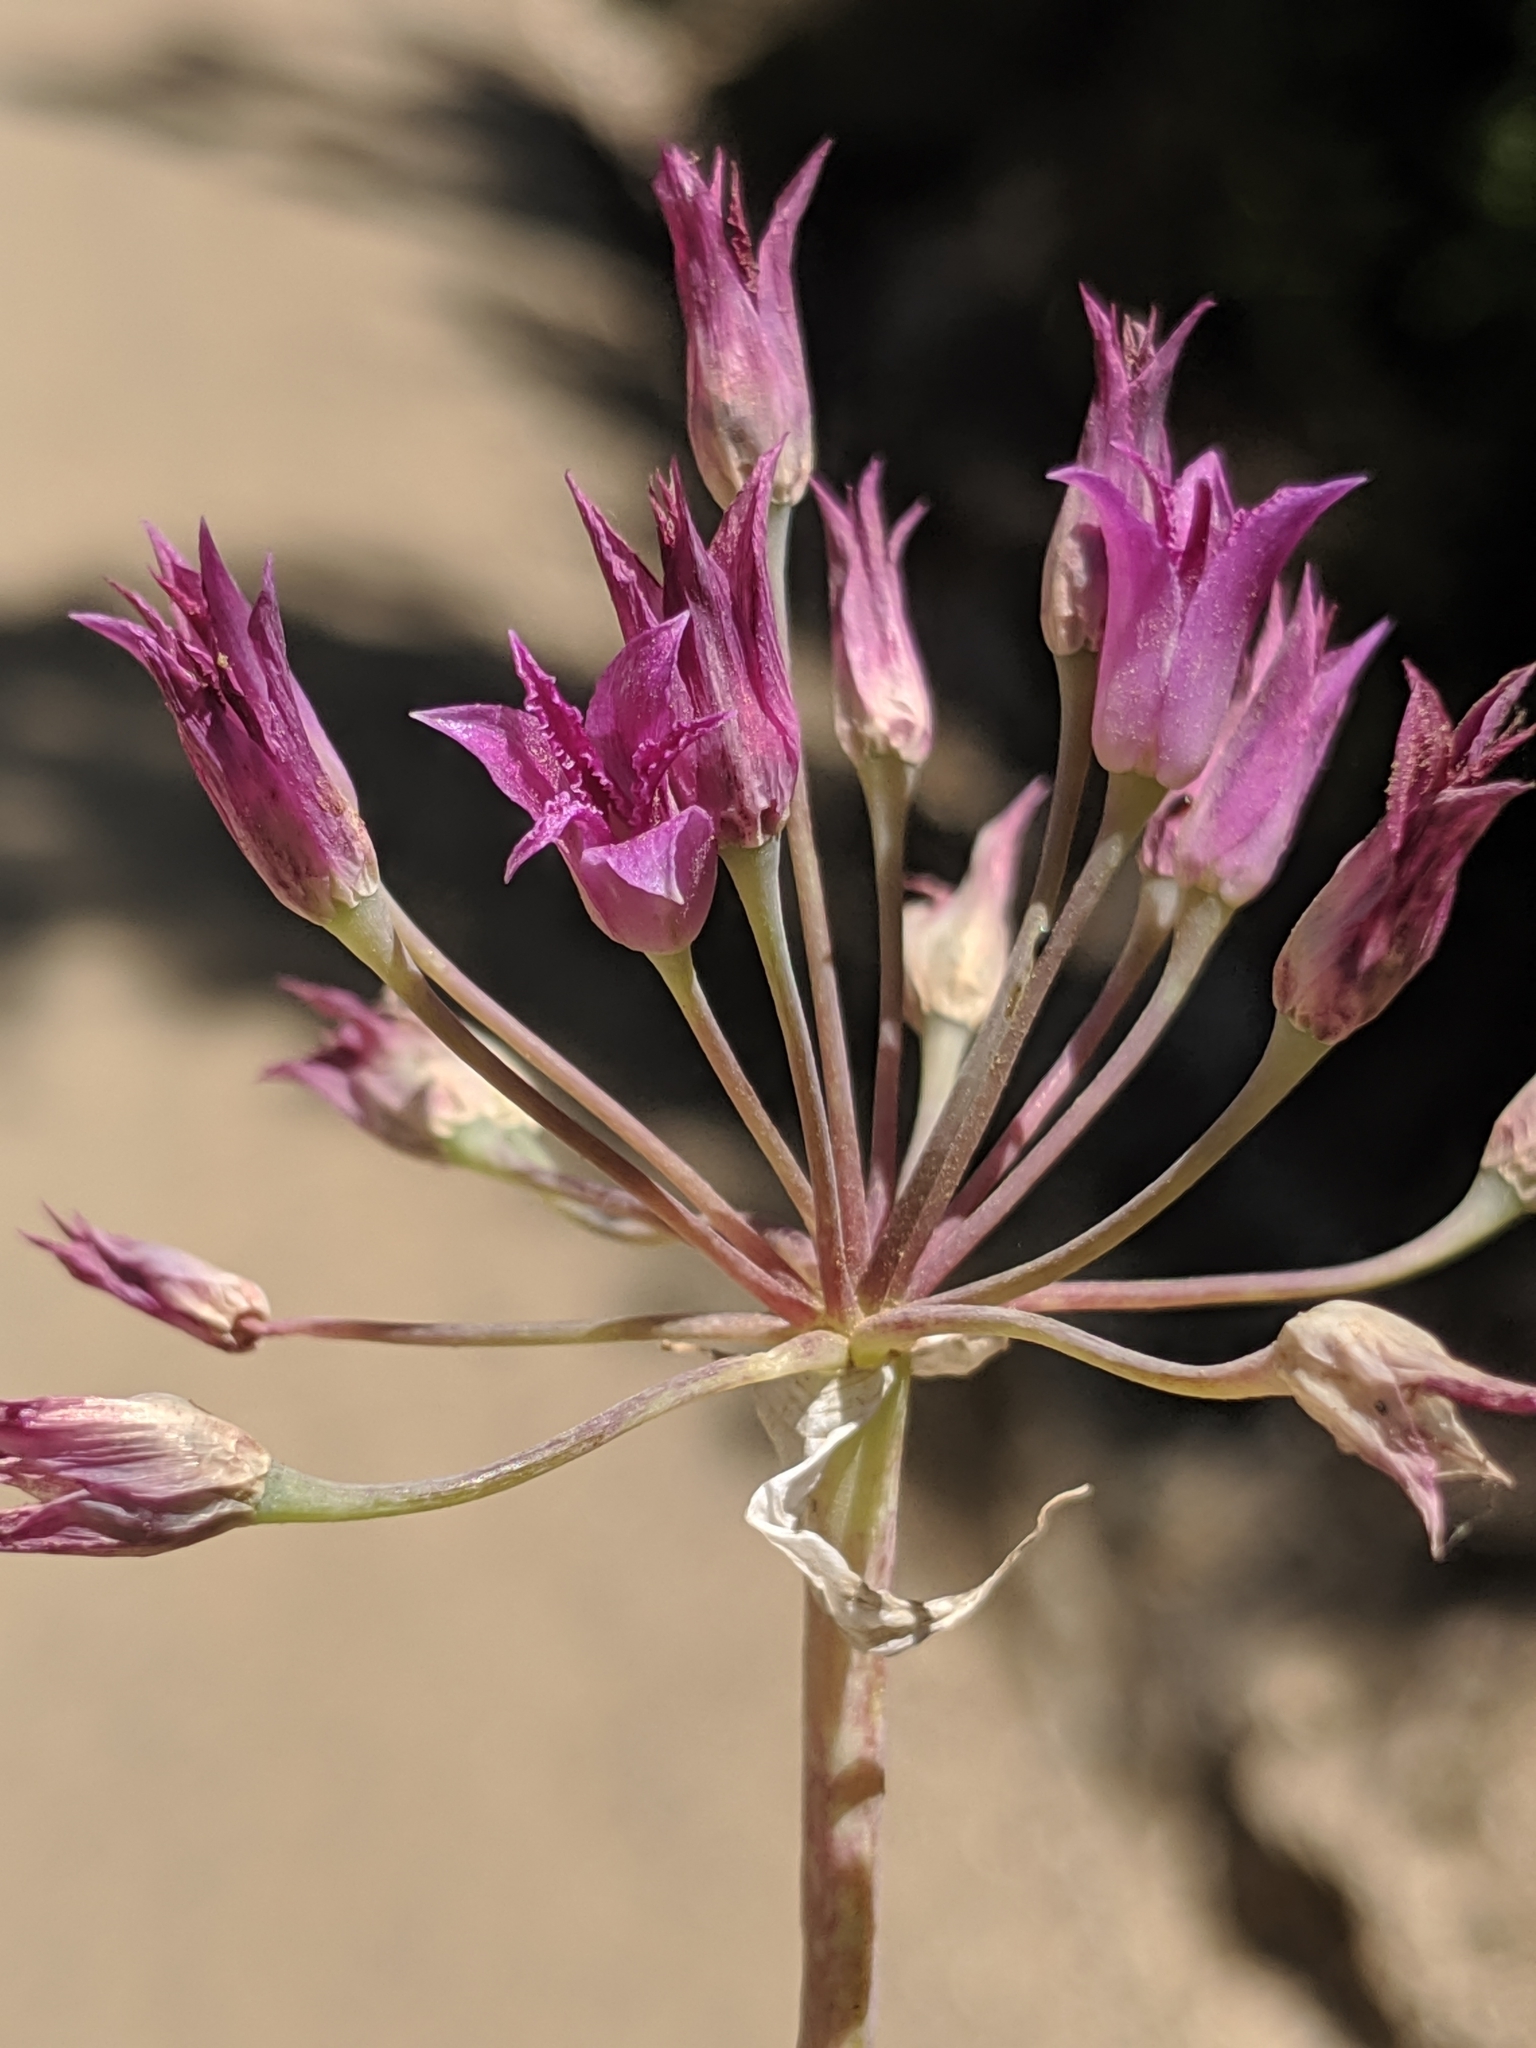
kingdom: Plantae
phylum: Tracheophyta
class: Liliopsida
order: Asparagales
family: Amaryllidaceae
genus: Allium
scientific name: Allium crispum
